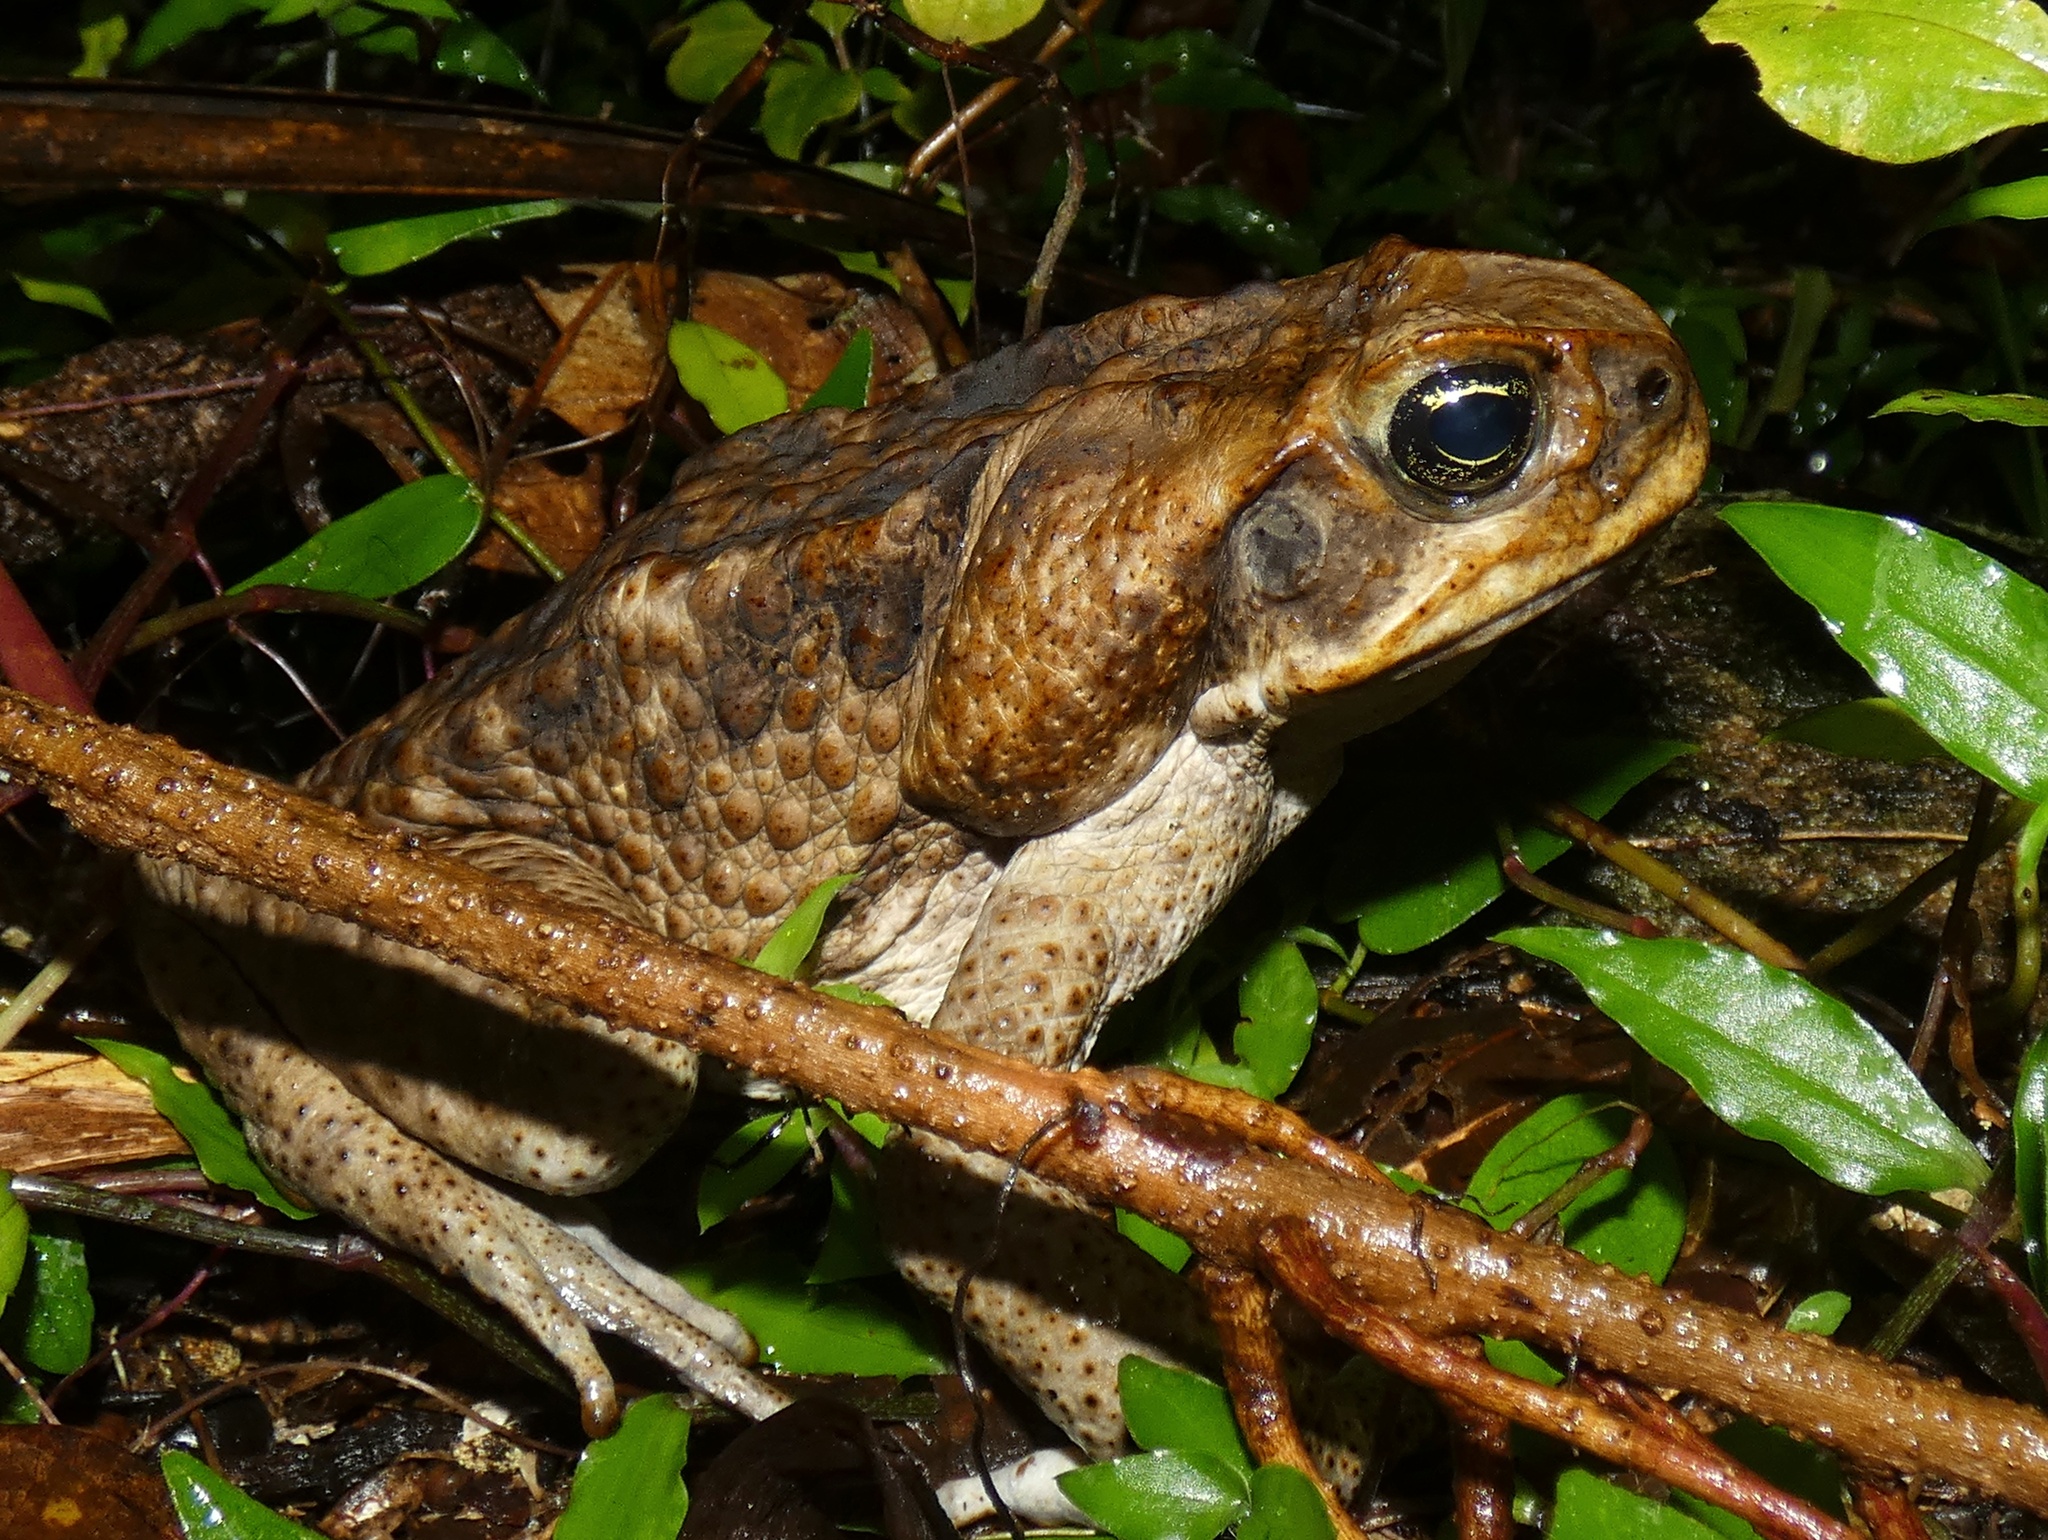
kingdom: Animalia
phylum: Chordata
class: Amphibia
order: Anura
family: Bufonidae
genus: Rhinella
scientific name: Rhinella marina
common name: Cane toad
